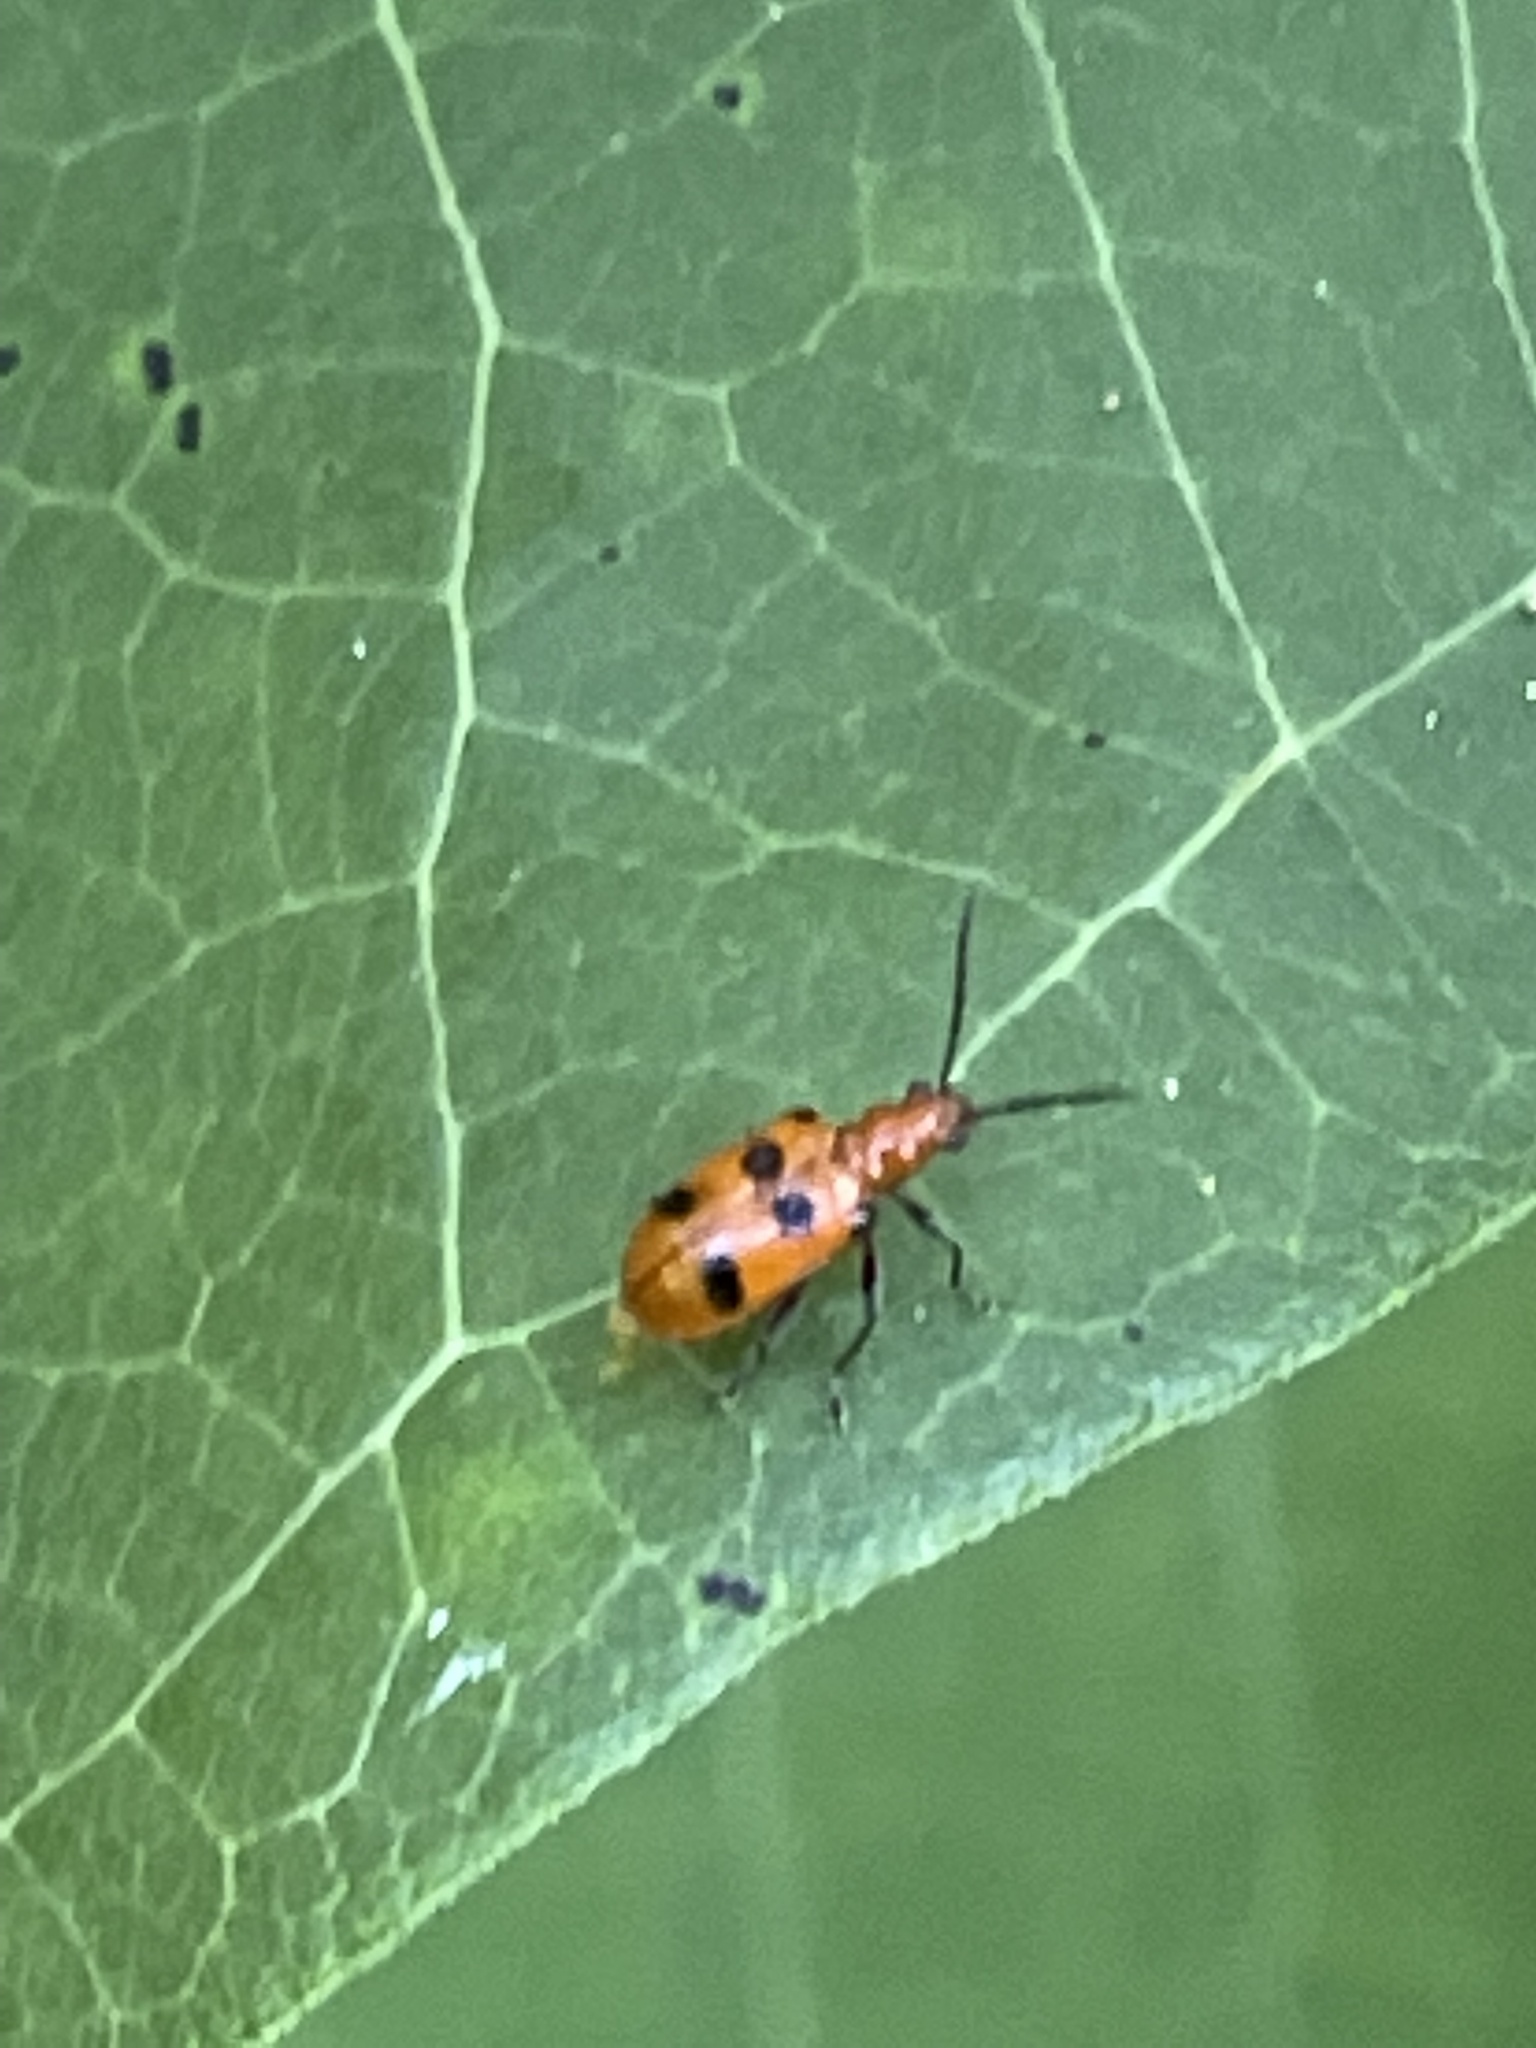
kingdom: Animalia
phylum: Arthropoda
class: Insecta
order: Coleoptera
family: Chrysomelidae
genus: Neolema
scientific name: Neolema sexpunctata
